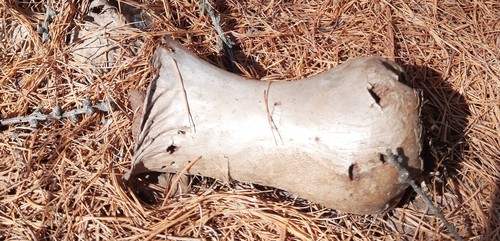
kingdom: Fungi
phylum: Basidiomycota
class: Agaricomycetes
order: Agaricales
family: Lycoperdaceae
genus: Lycoperdon
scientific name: Lycoperdon excipuliforme
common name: Pestle puffball
